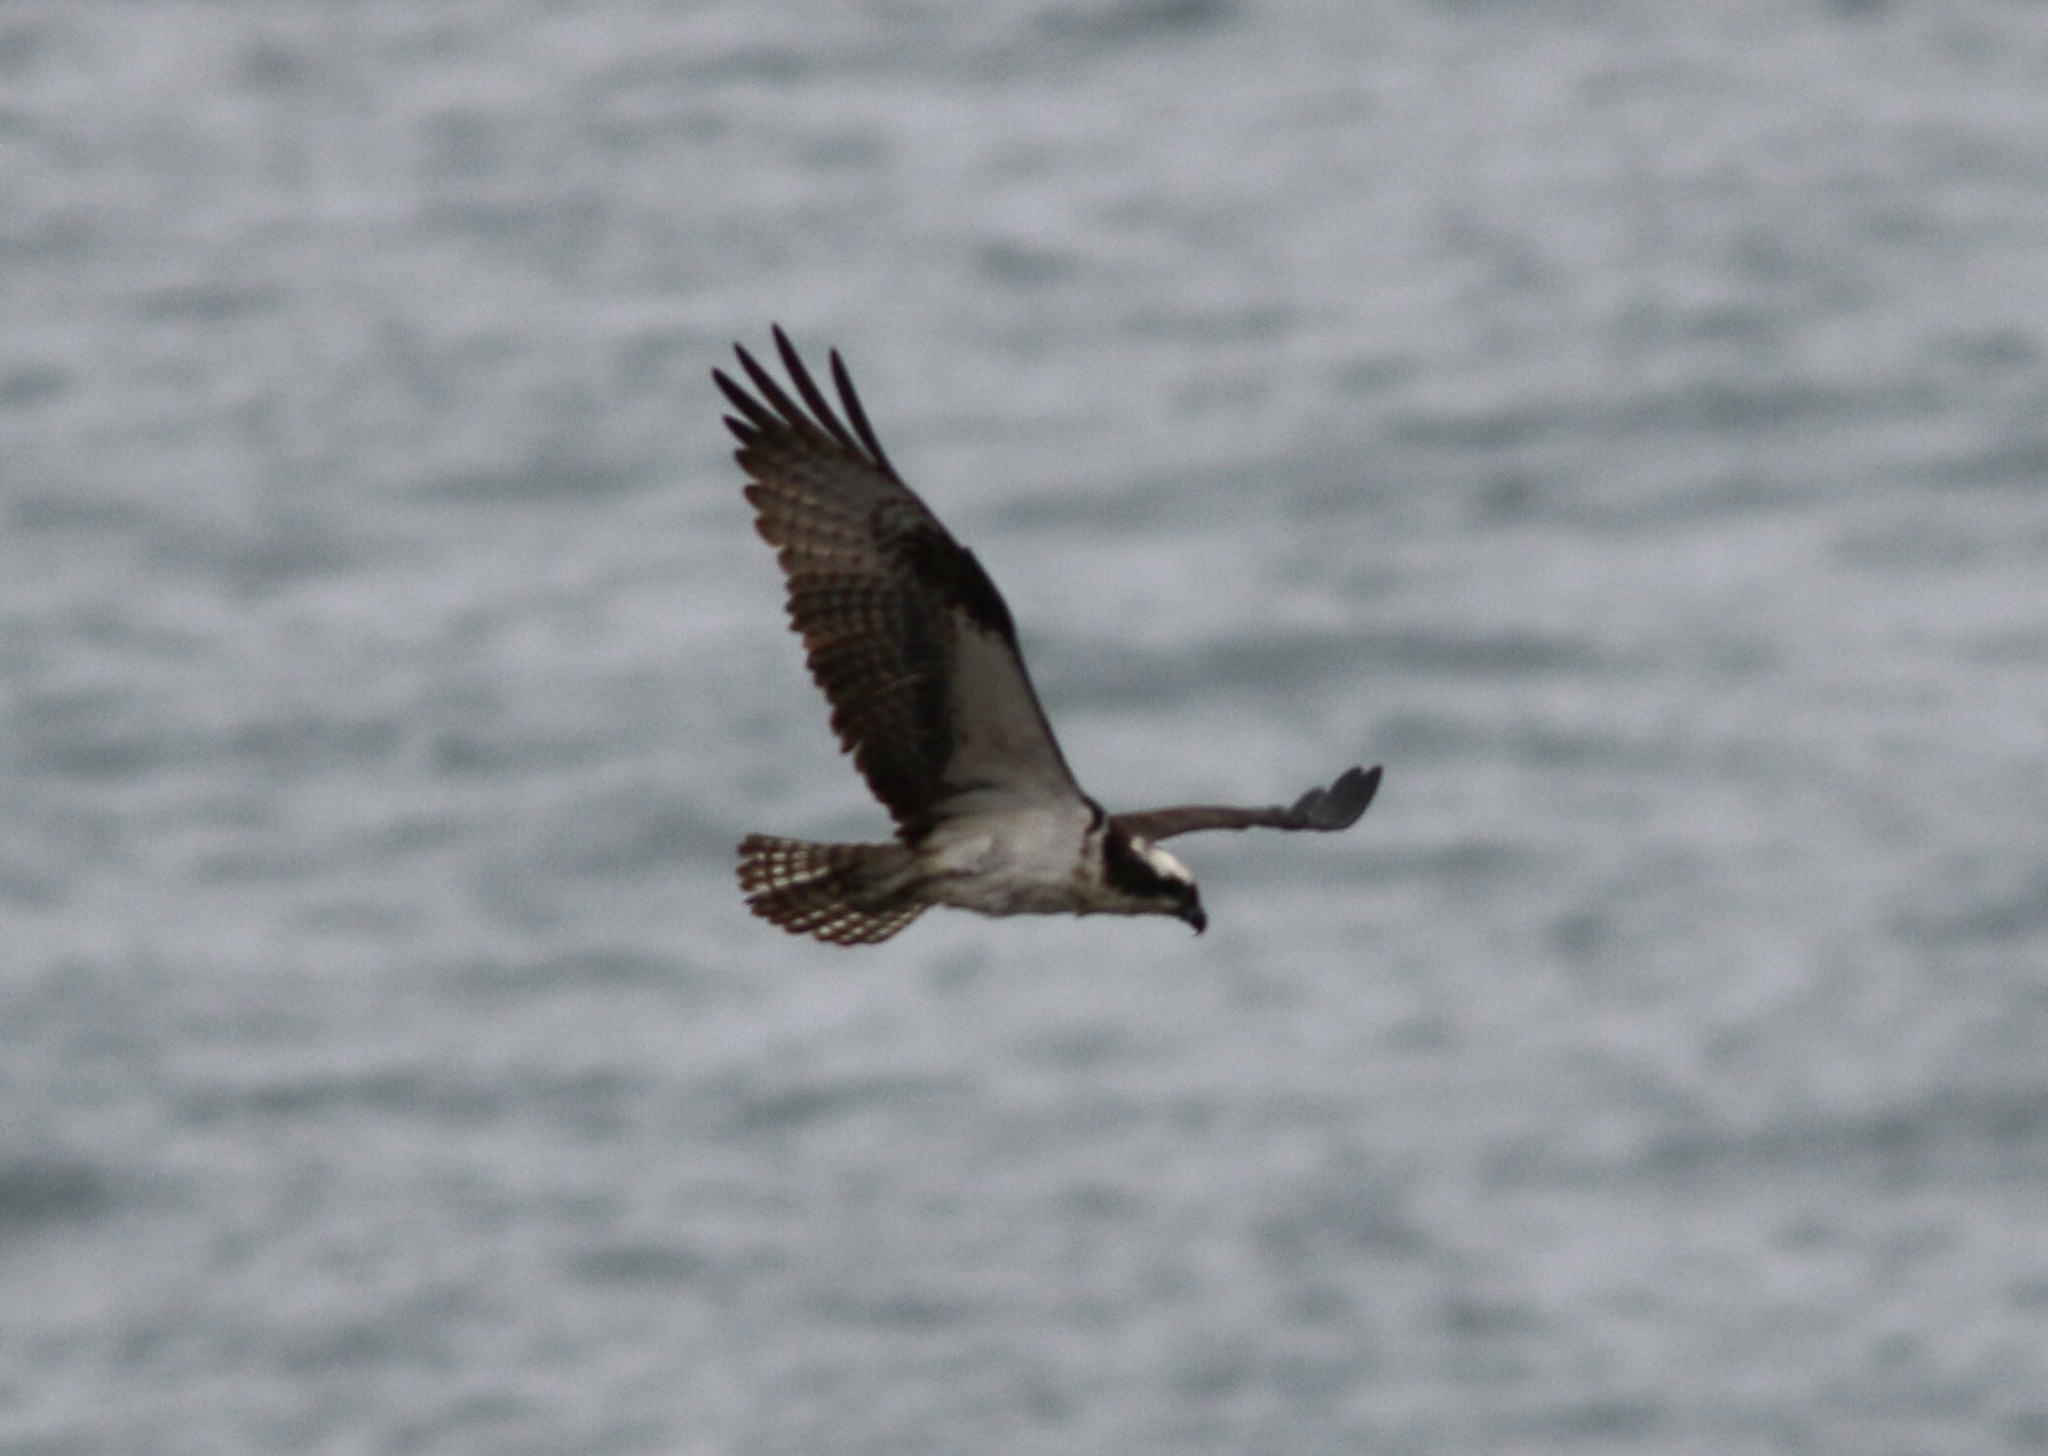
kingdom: Animalia
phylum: Chordata
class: Aves
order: Accipitriformes
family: Pandionidae
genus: Pandion
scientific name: Pandion haliaetus
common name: Osprey
